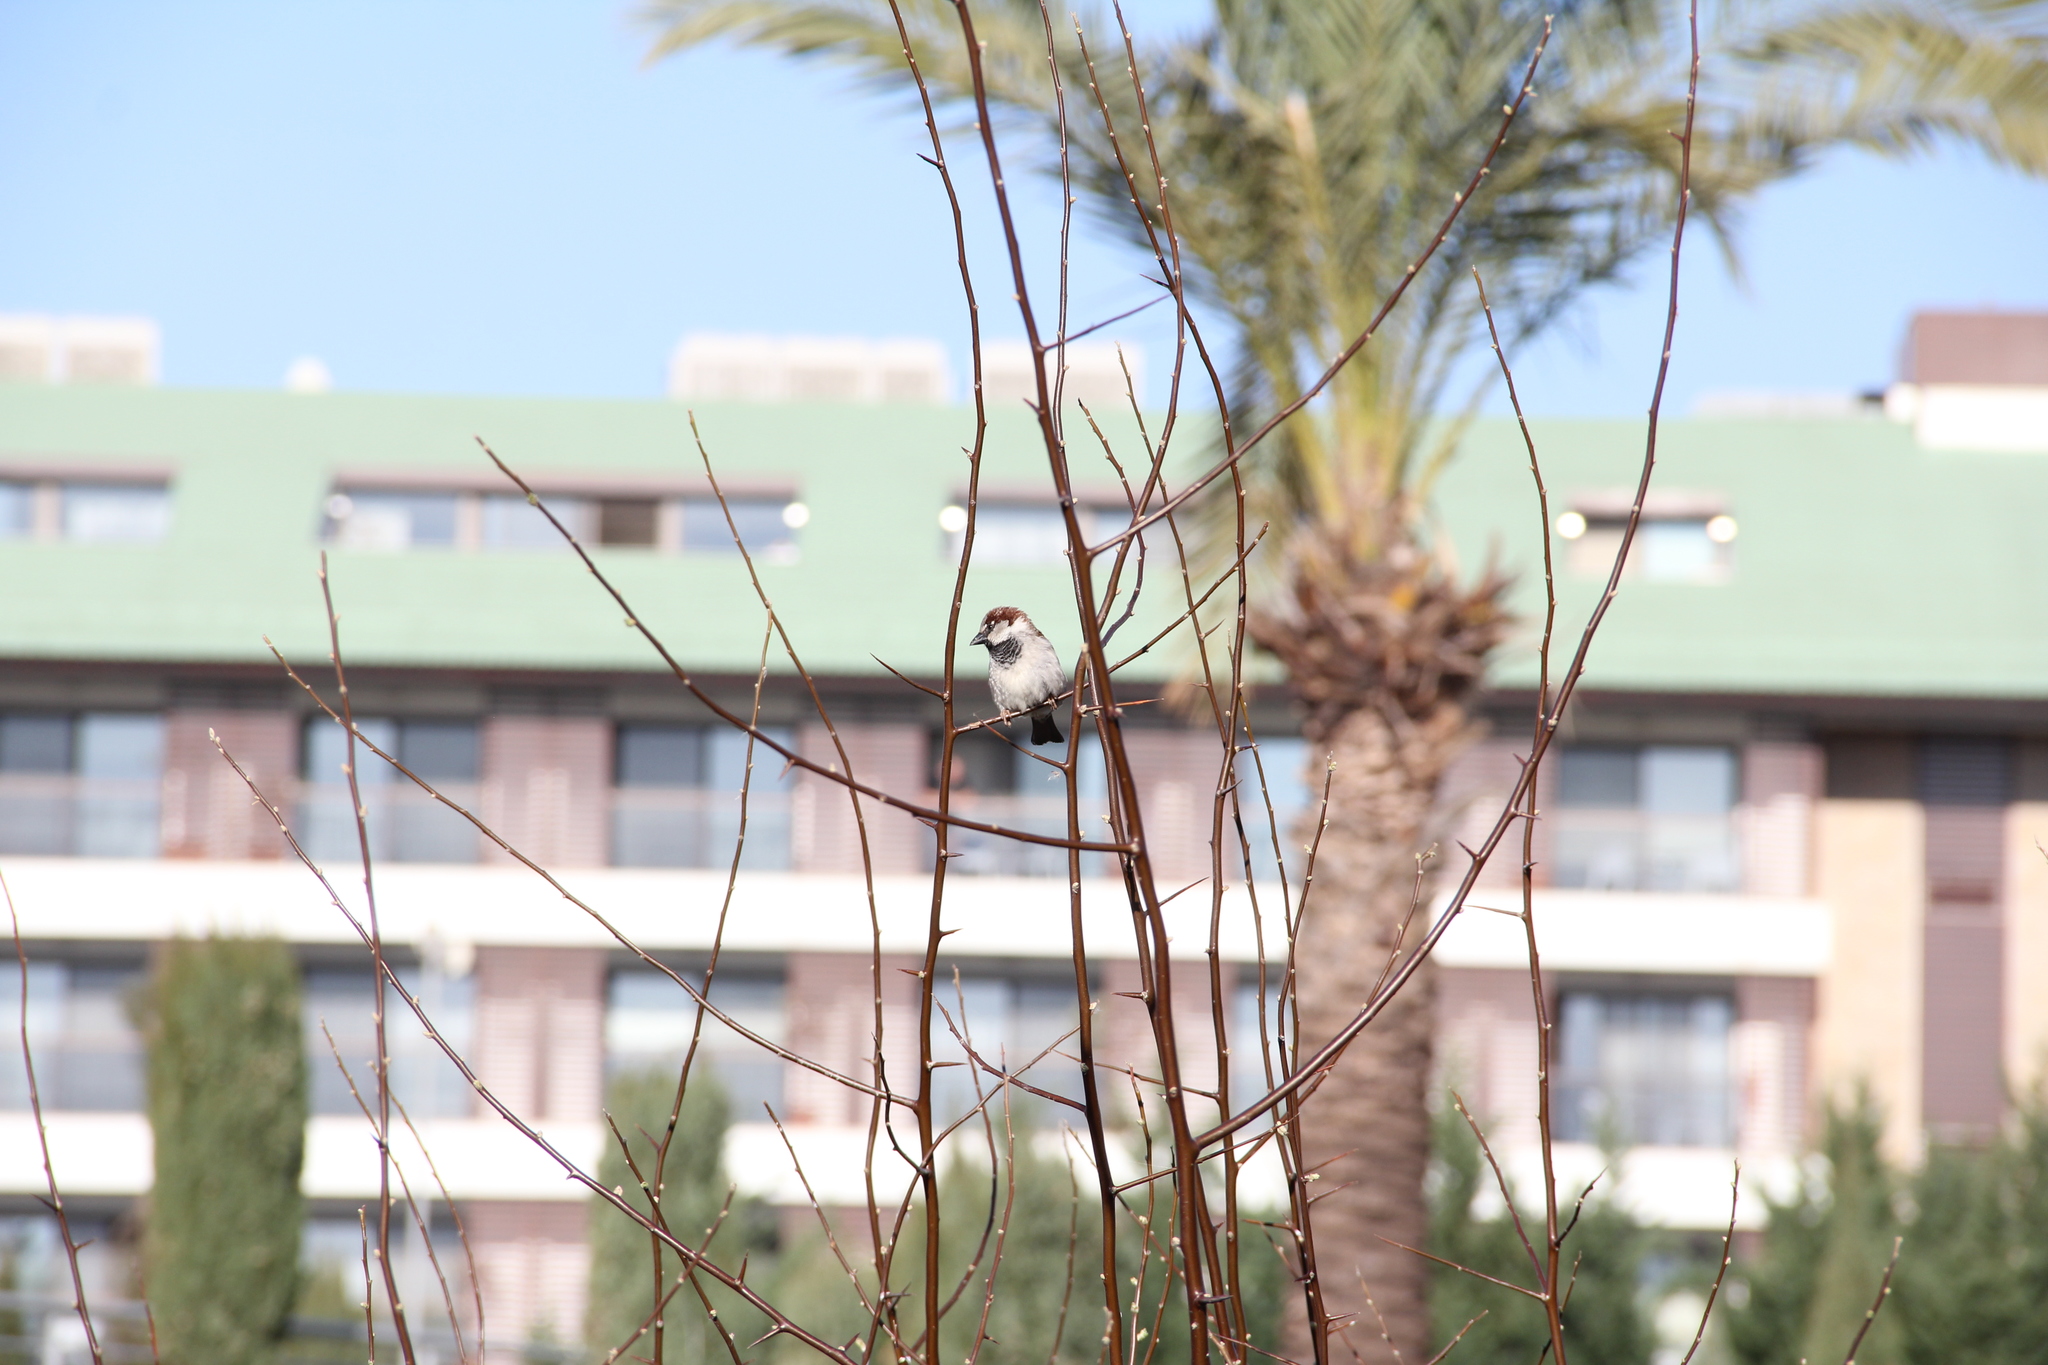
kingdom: Animalia
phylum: Chordata
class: Aves
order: Passeriformes
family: Passeridae
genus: Passer
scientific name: Passer domesticus
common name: House sparrow
